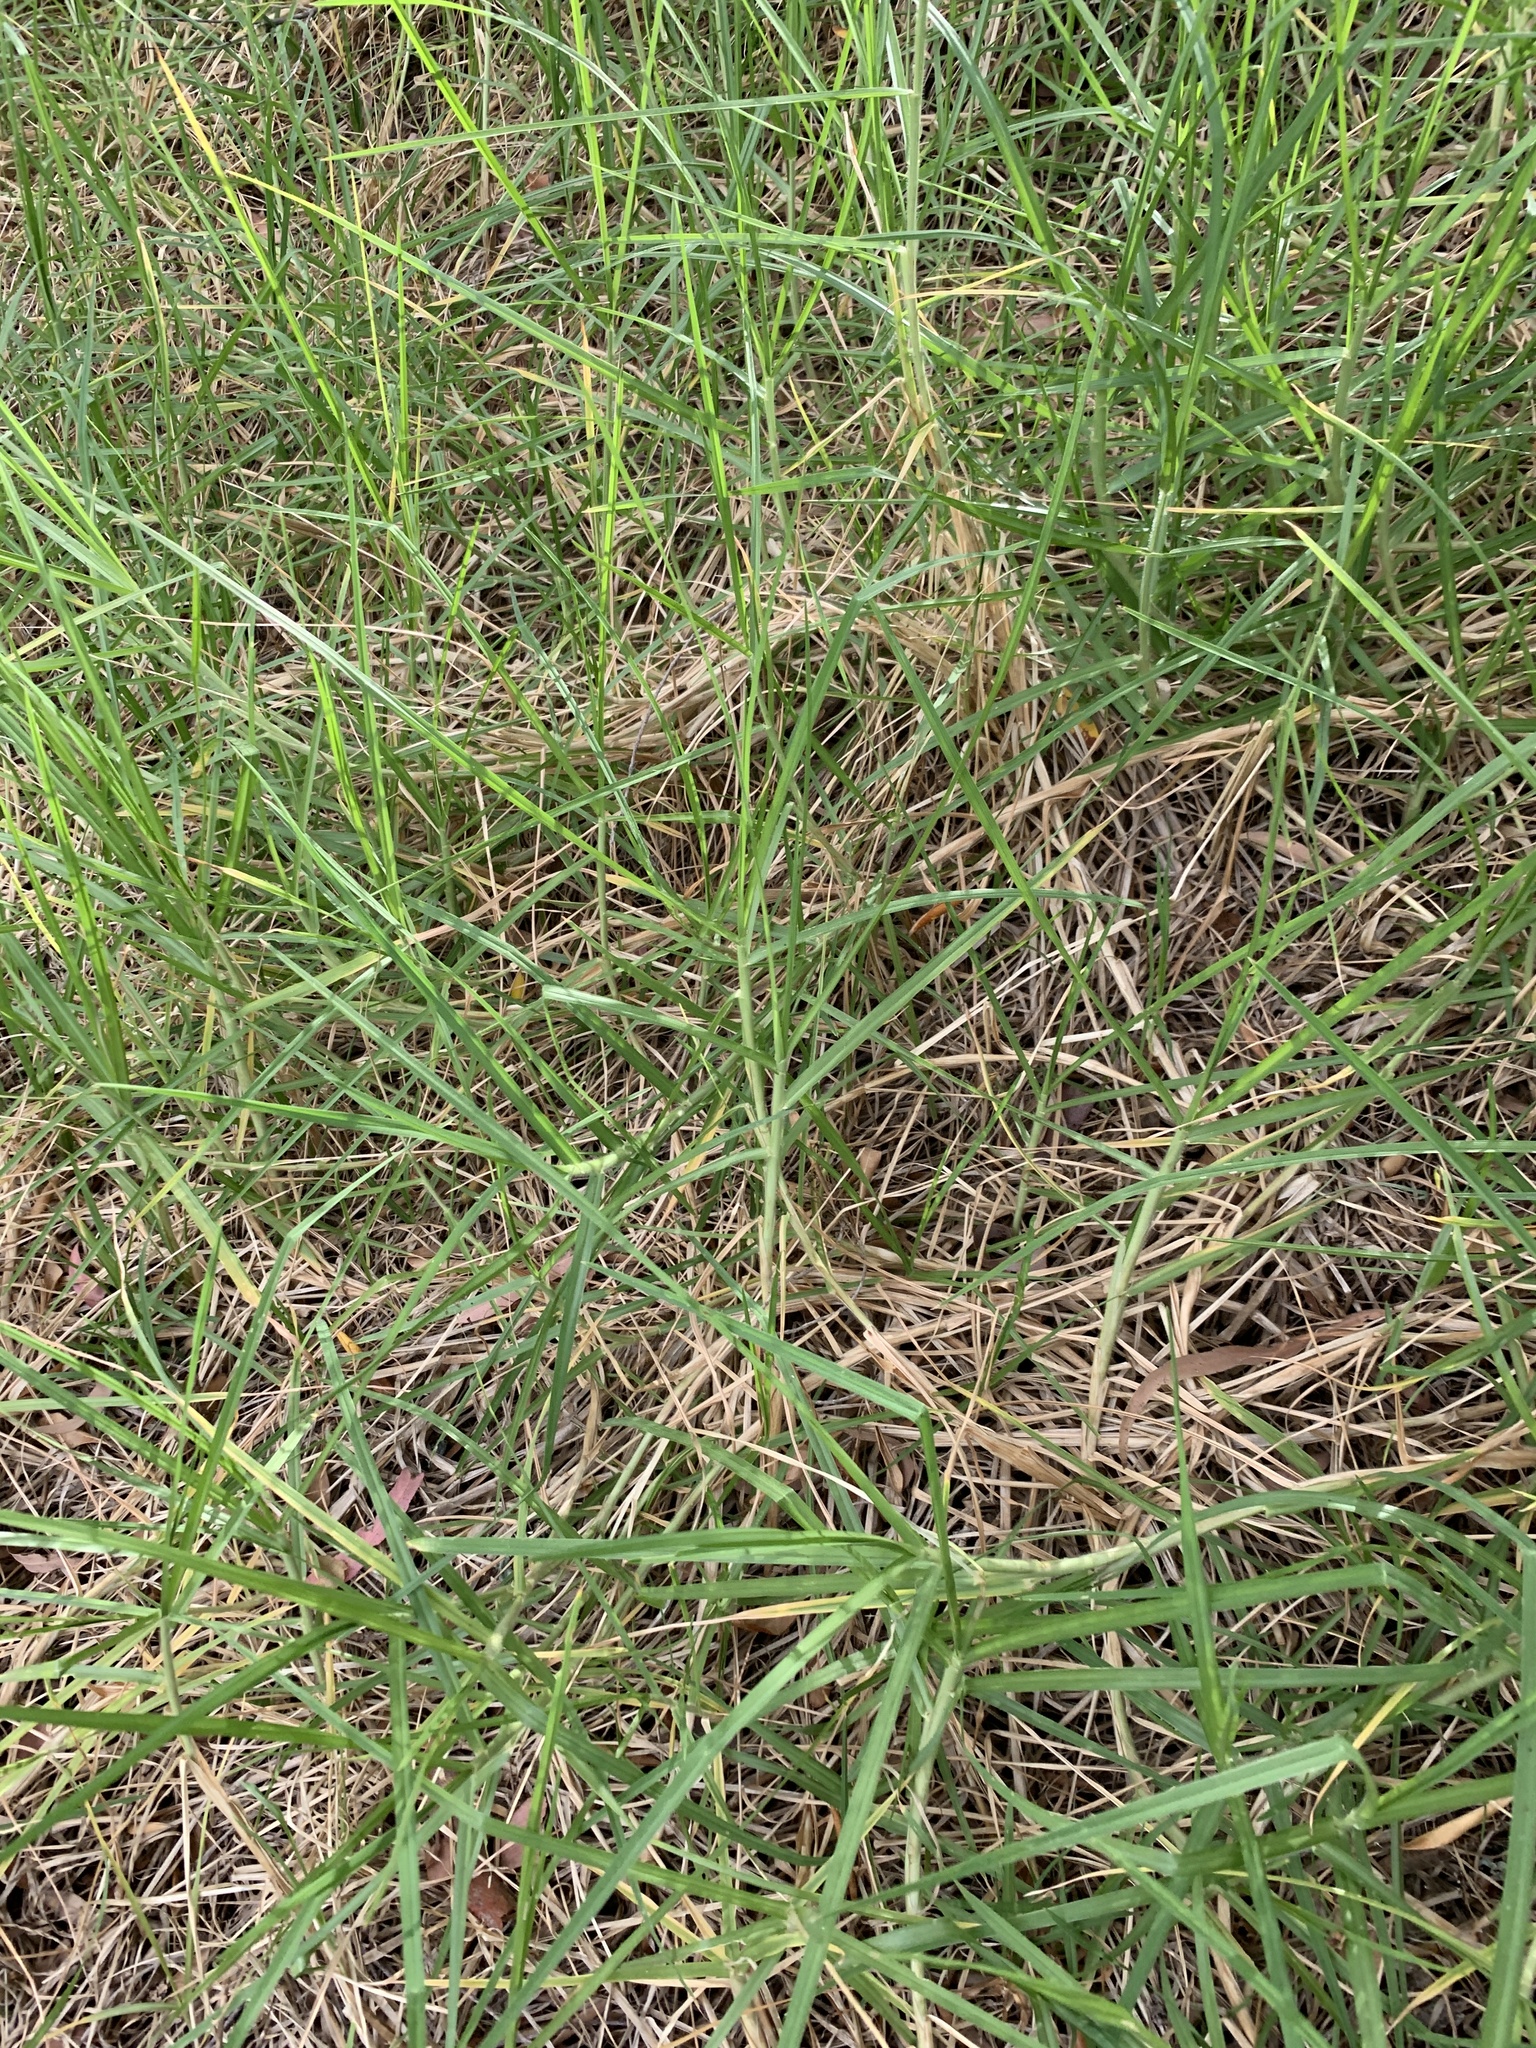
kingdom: Plantae
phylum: Tracheophyta
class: Liliopsida
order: Poales
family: Poaceae
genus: Cenchrus
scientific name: Cenchrus clandestinus
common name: Kikuyugrass
